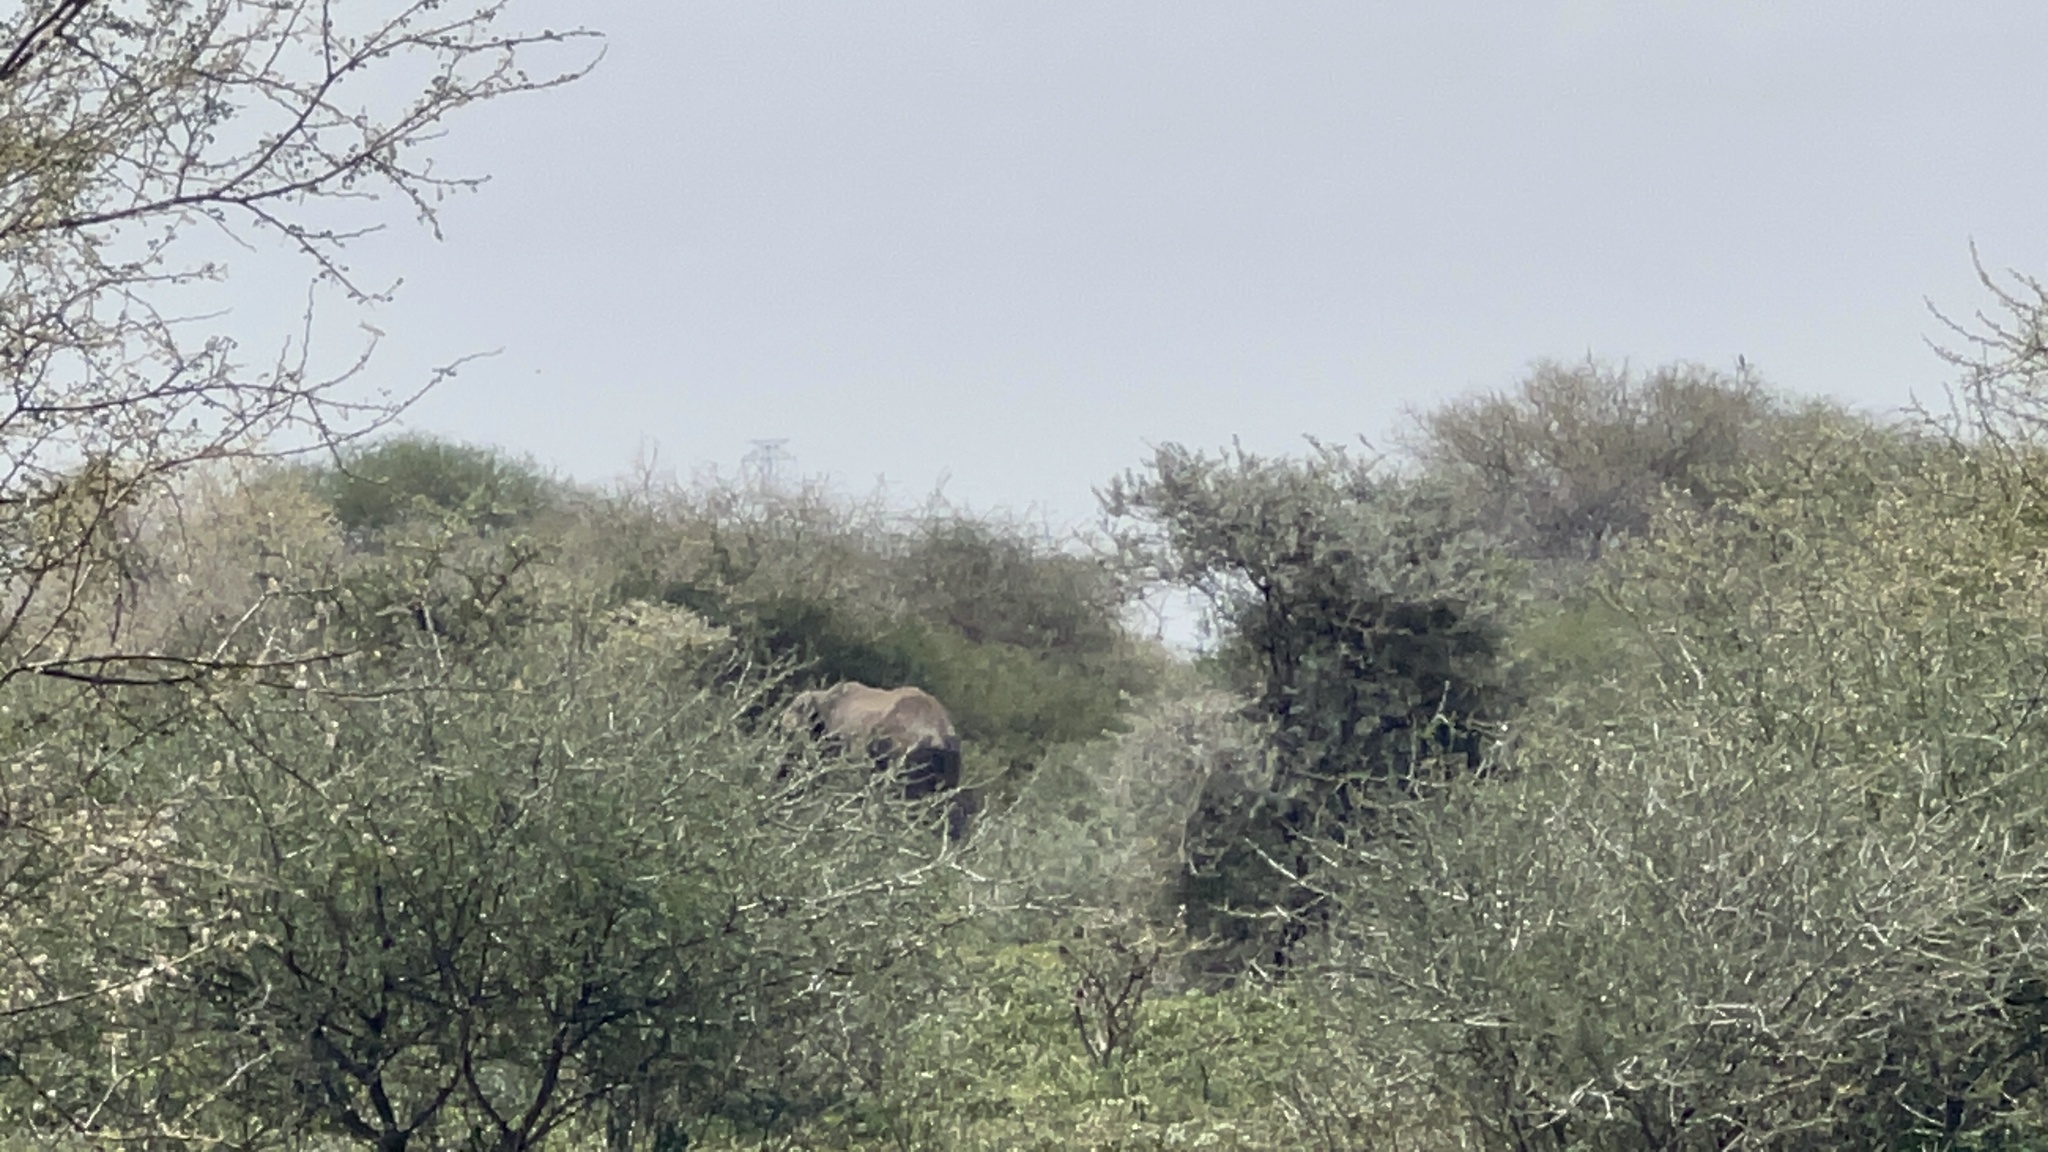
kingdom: Animalia
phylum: Chordata
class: Mammalia
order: Proboscidea
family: Elephantidae
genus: Loxodonta
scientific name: Loxodonta africana
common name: African elephant
